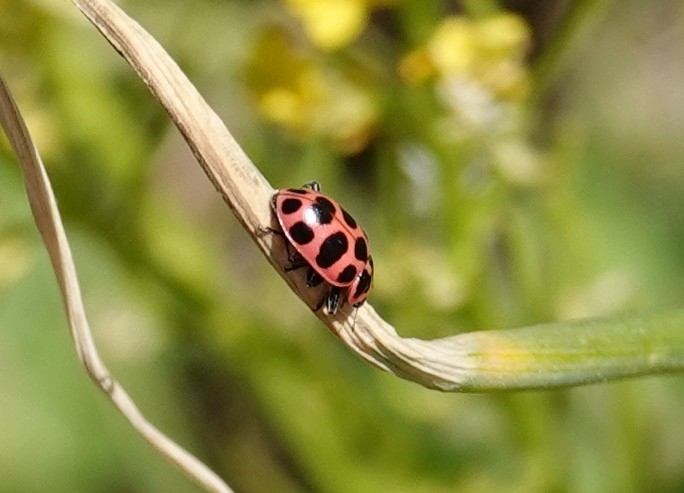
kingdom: Animalia
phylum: Arthropoda
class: Insecta
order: Coleoptera
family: Coccinellidae
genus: Coleomegilla
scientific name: Coleomegilla maculata
